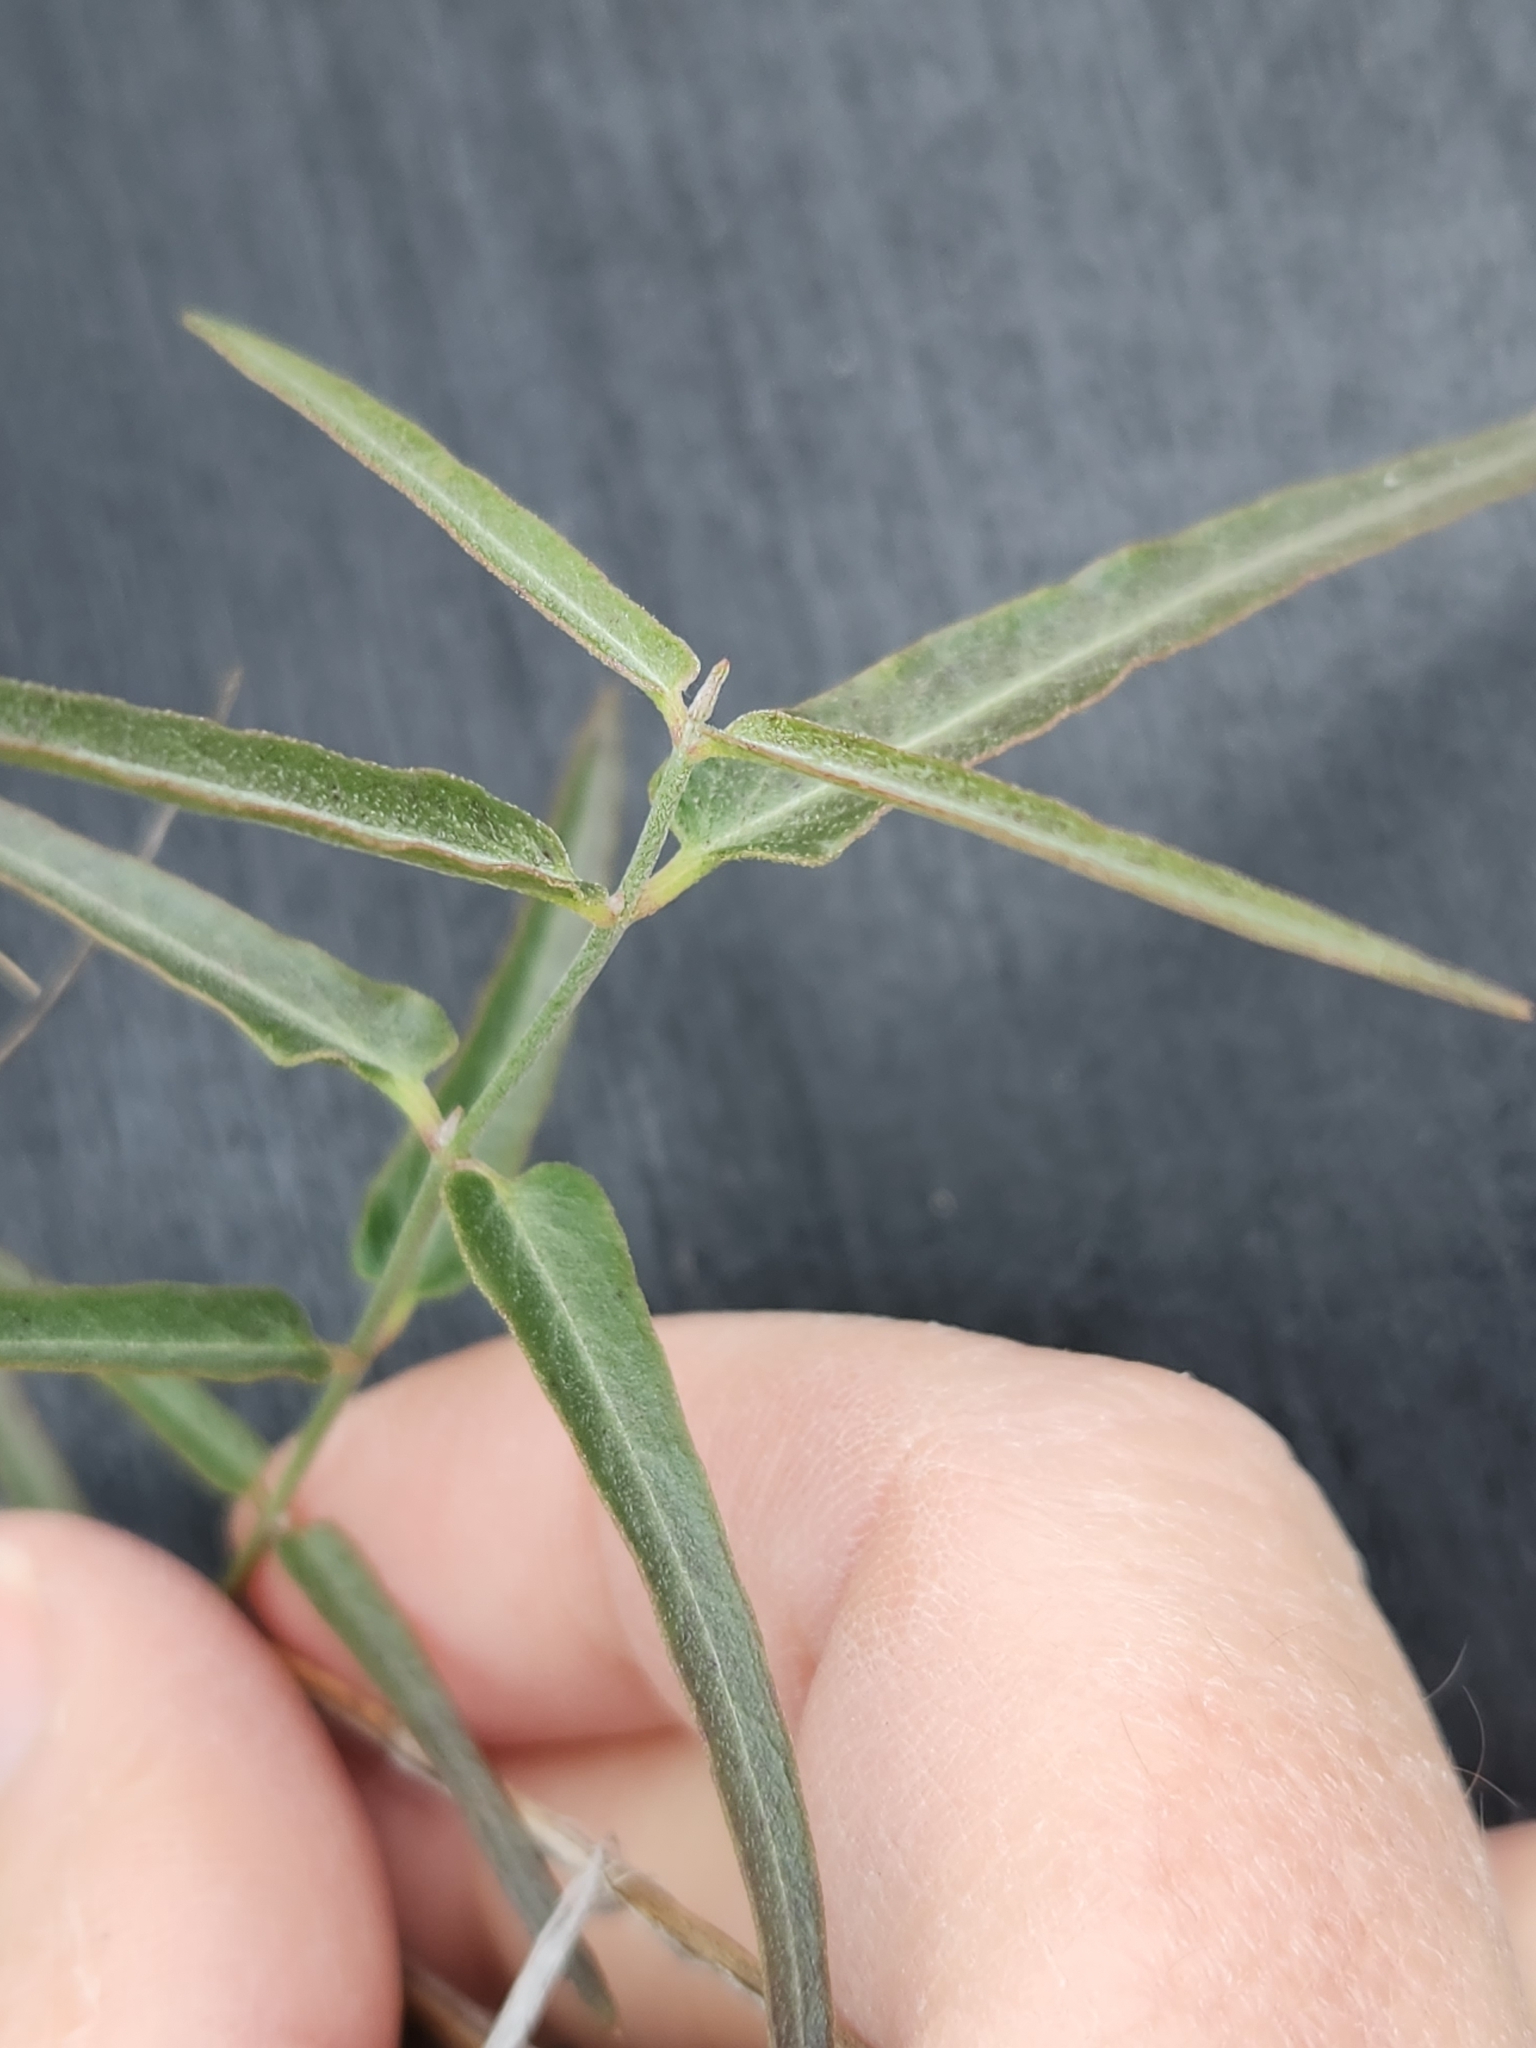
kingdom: Plantae
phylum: Tracheophyta
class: Magnoliopsida
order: Gentianales
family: Apocynaceae
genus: Funastrum
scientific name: Funastrum crispum
